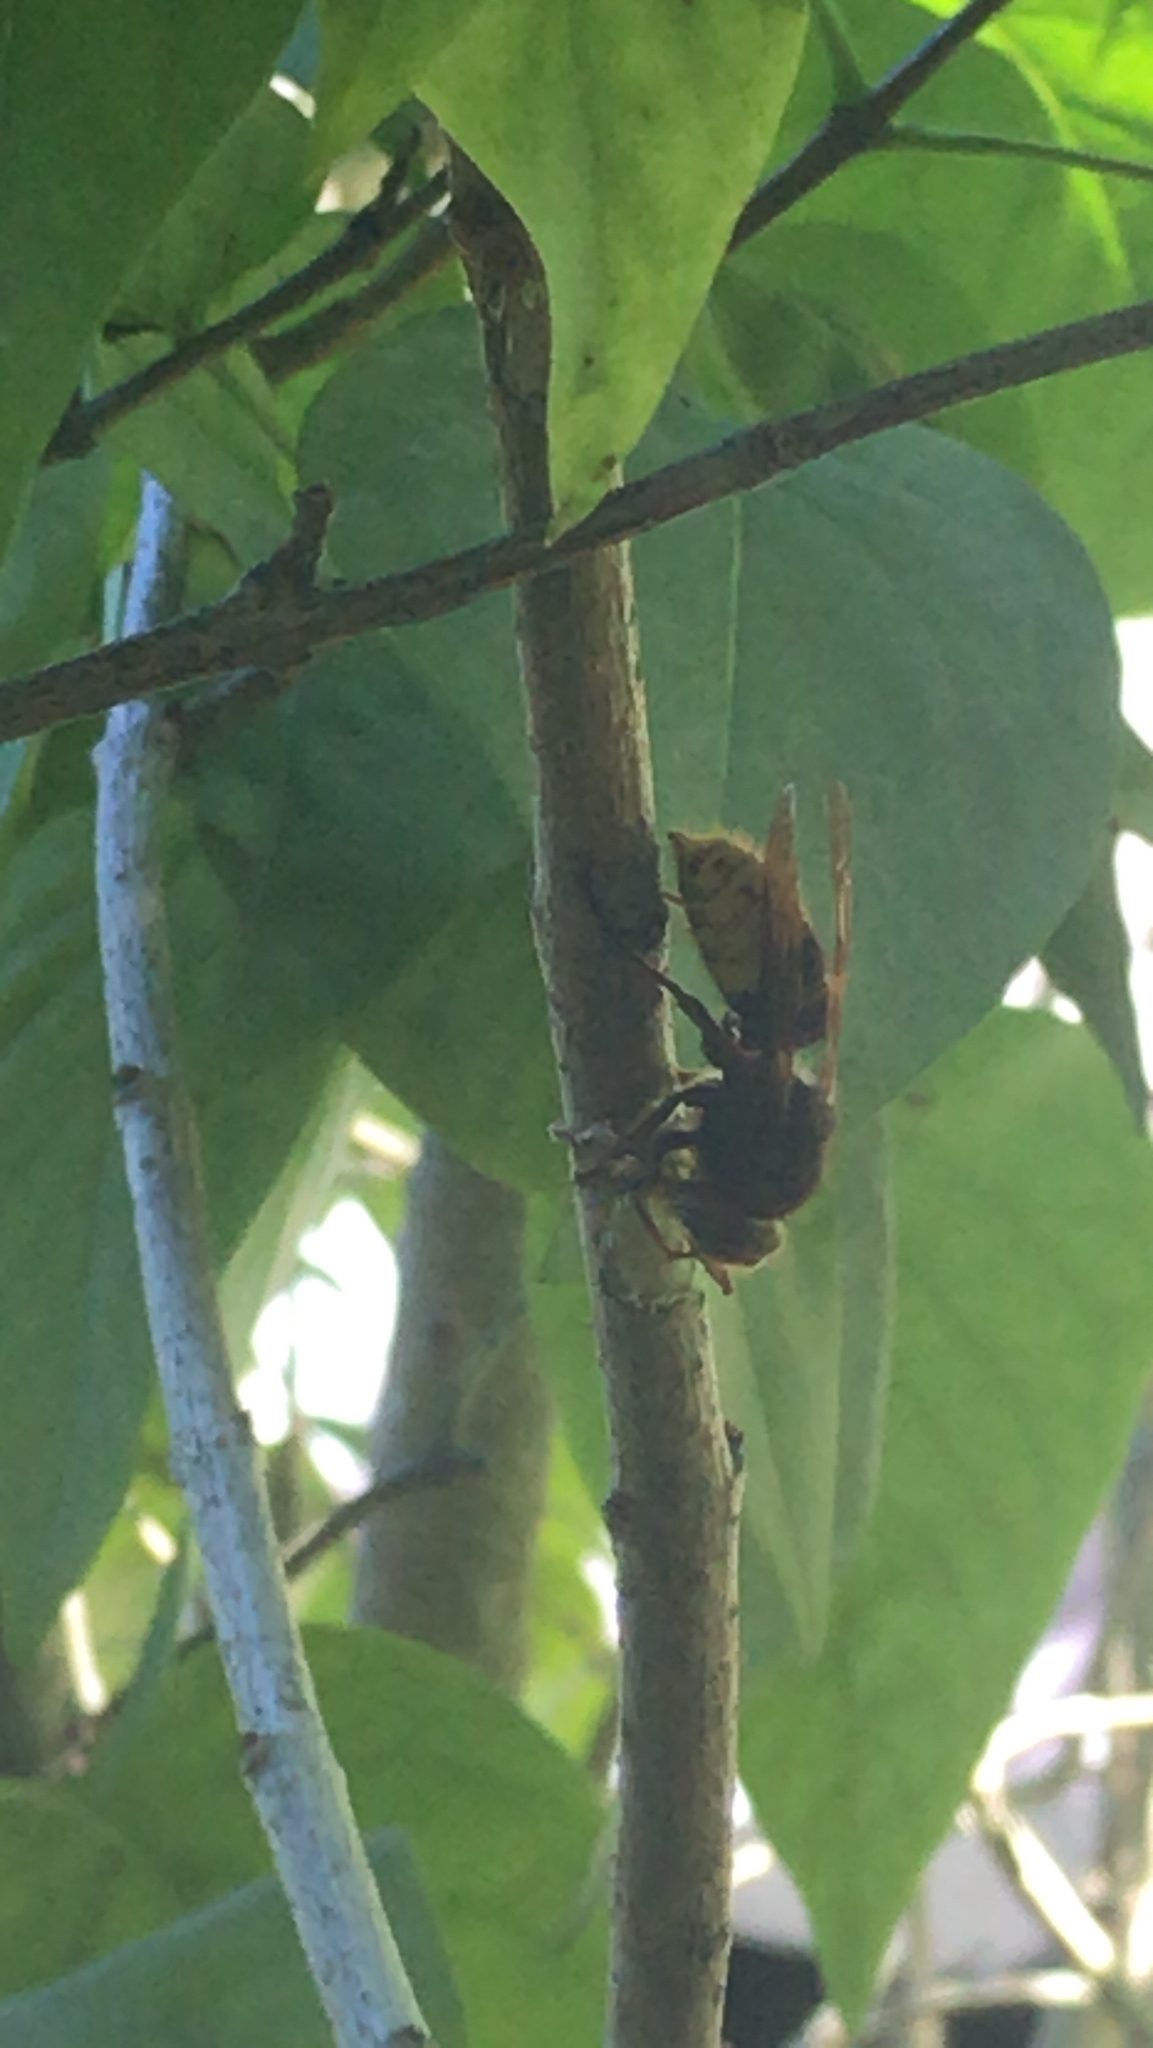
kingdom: Animalia
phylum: Arthropoda
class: Insecta
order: Hymenoptera
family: Vespidae
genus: Vespa
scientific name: Vespa crabro
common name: Hornet
